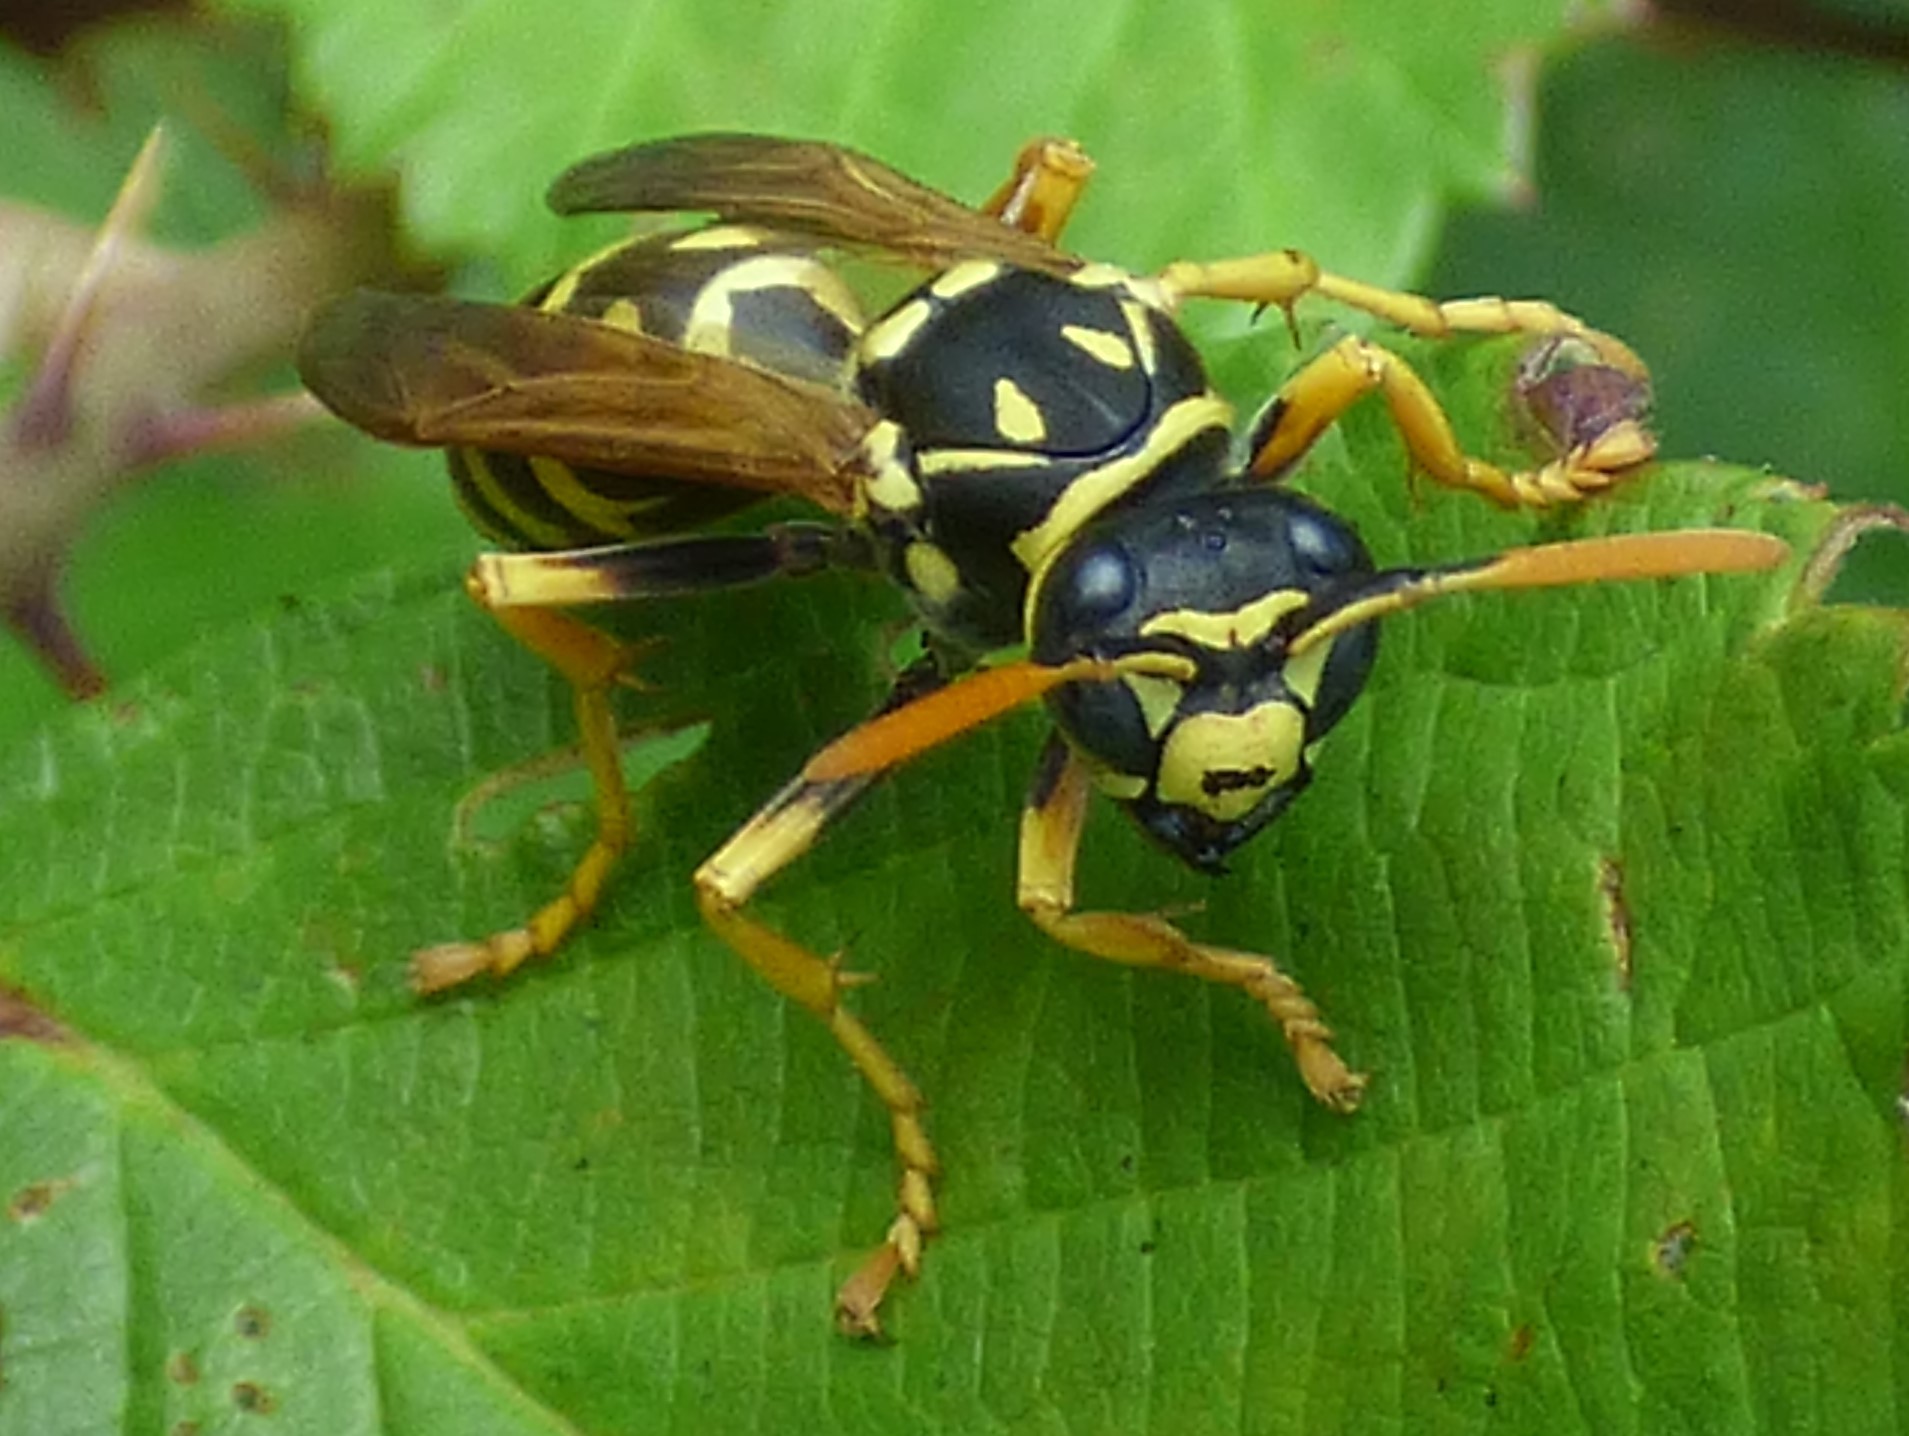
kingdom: Animalia
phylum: Arthropoda
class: Insecta
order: Hymenoptera
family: Eumenidae
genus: Polistes
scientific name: Polistes dominula
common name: Paper wasp
